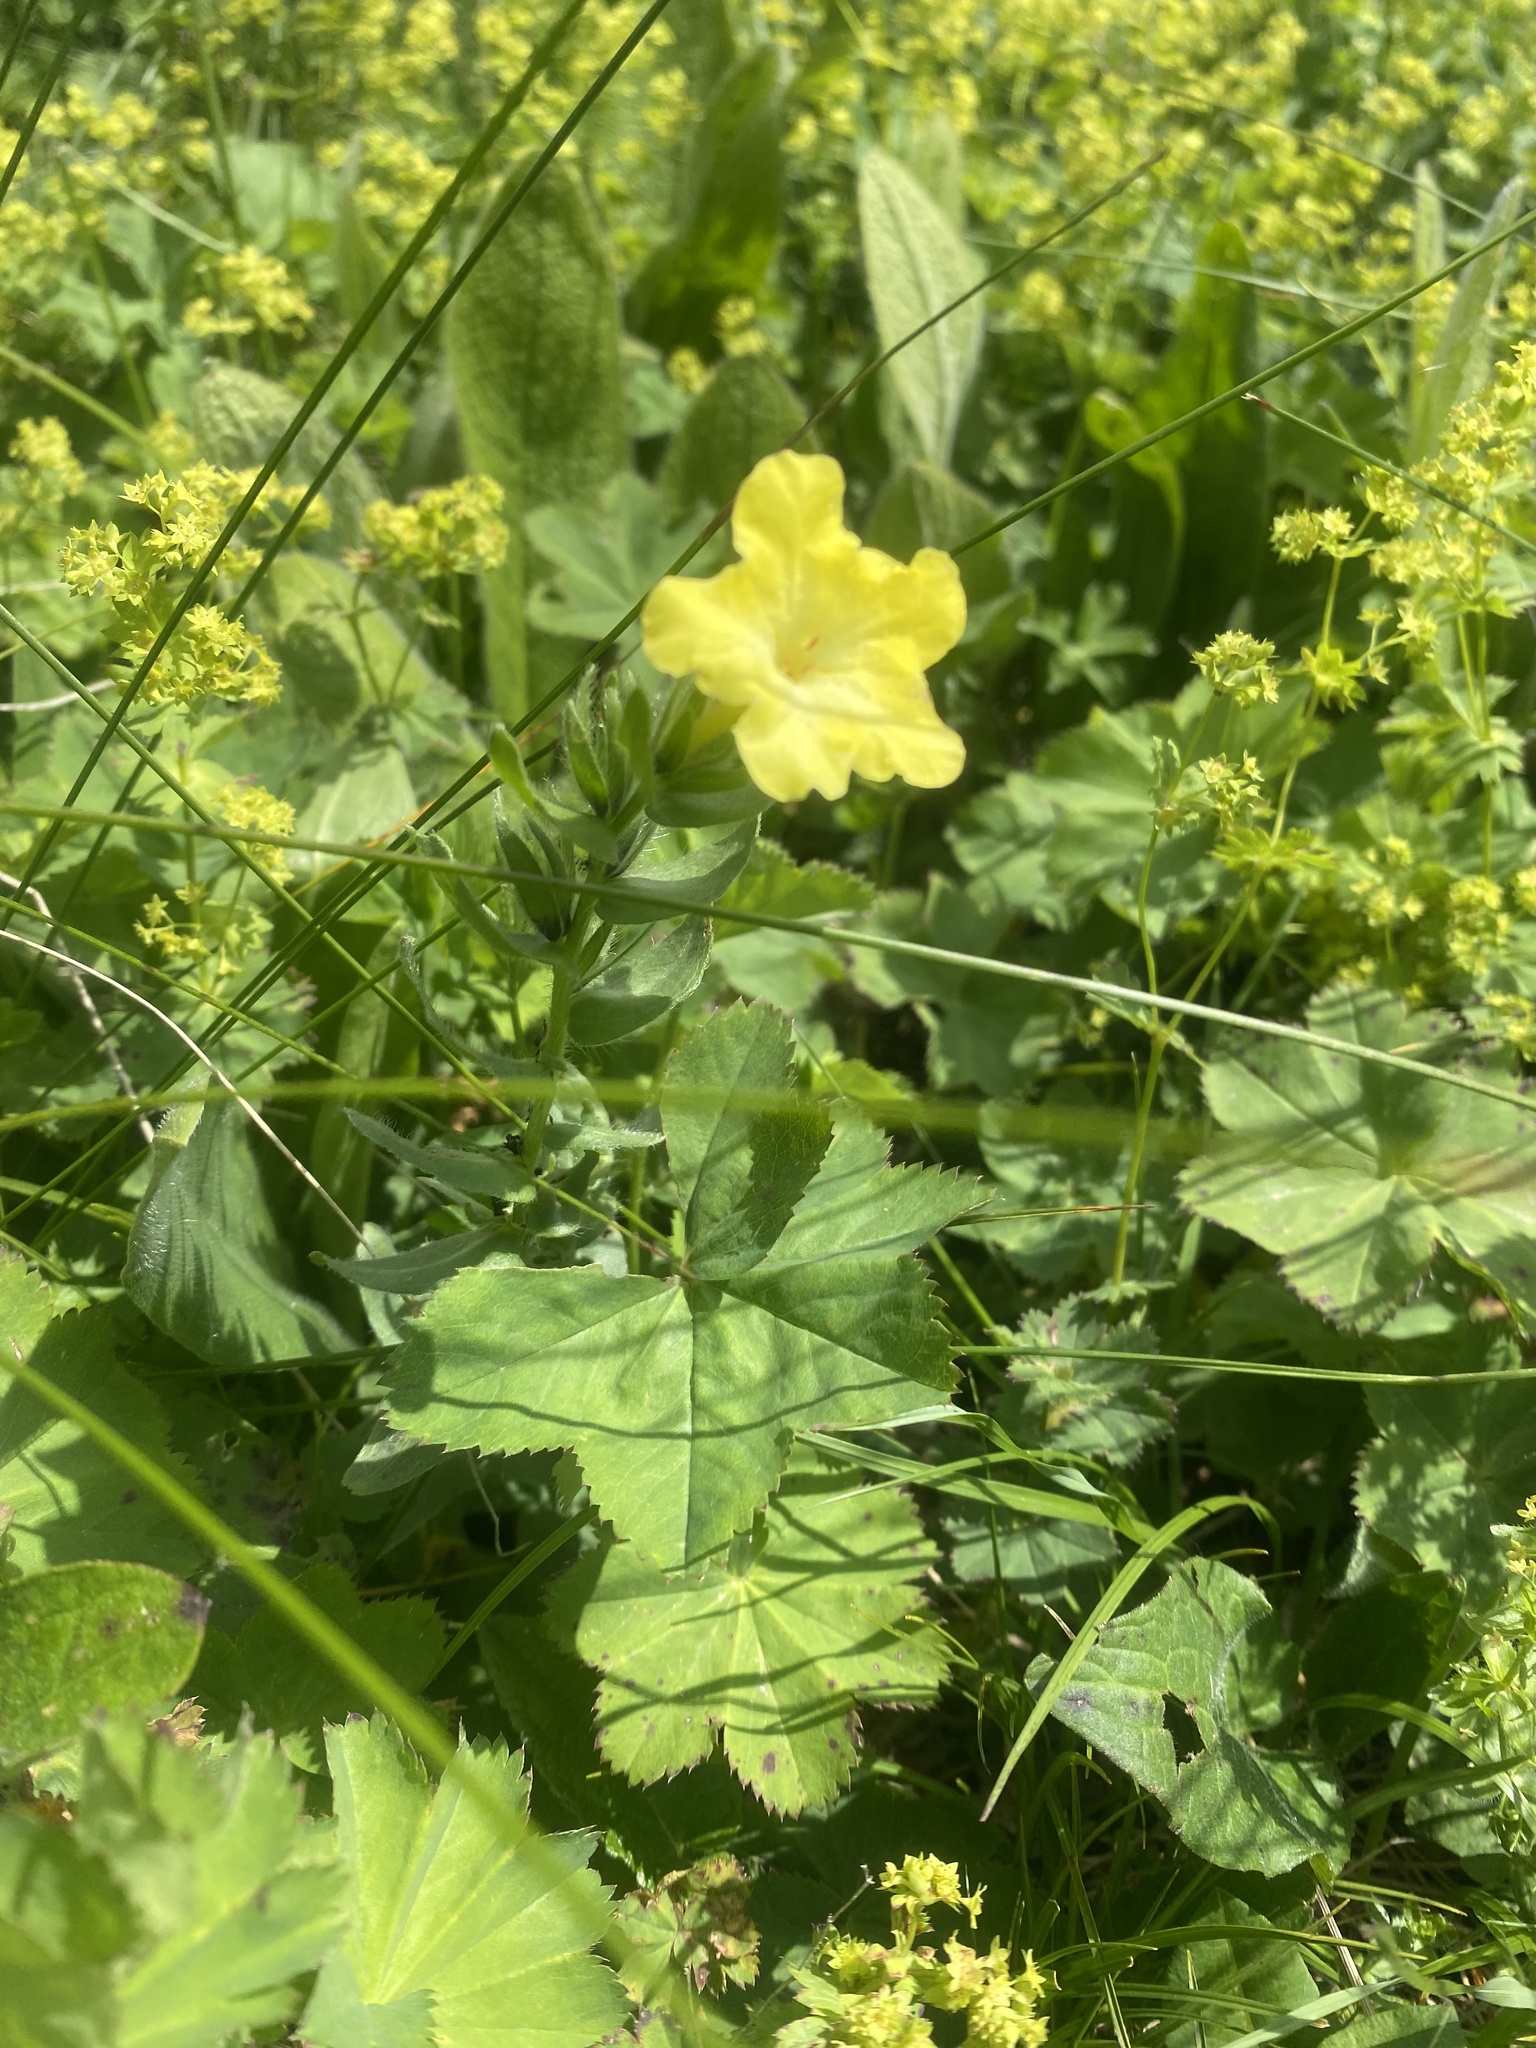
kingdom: Plantae
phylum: Tracheophyta
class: Magnoliopsida
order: Boraginales
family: Boraginaceae
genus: Huynhia
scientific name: Huynhia pulchra
